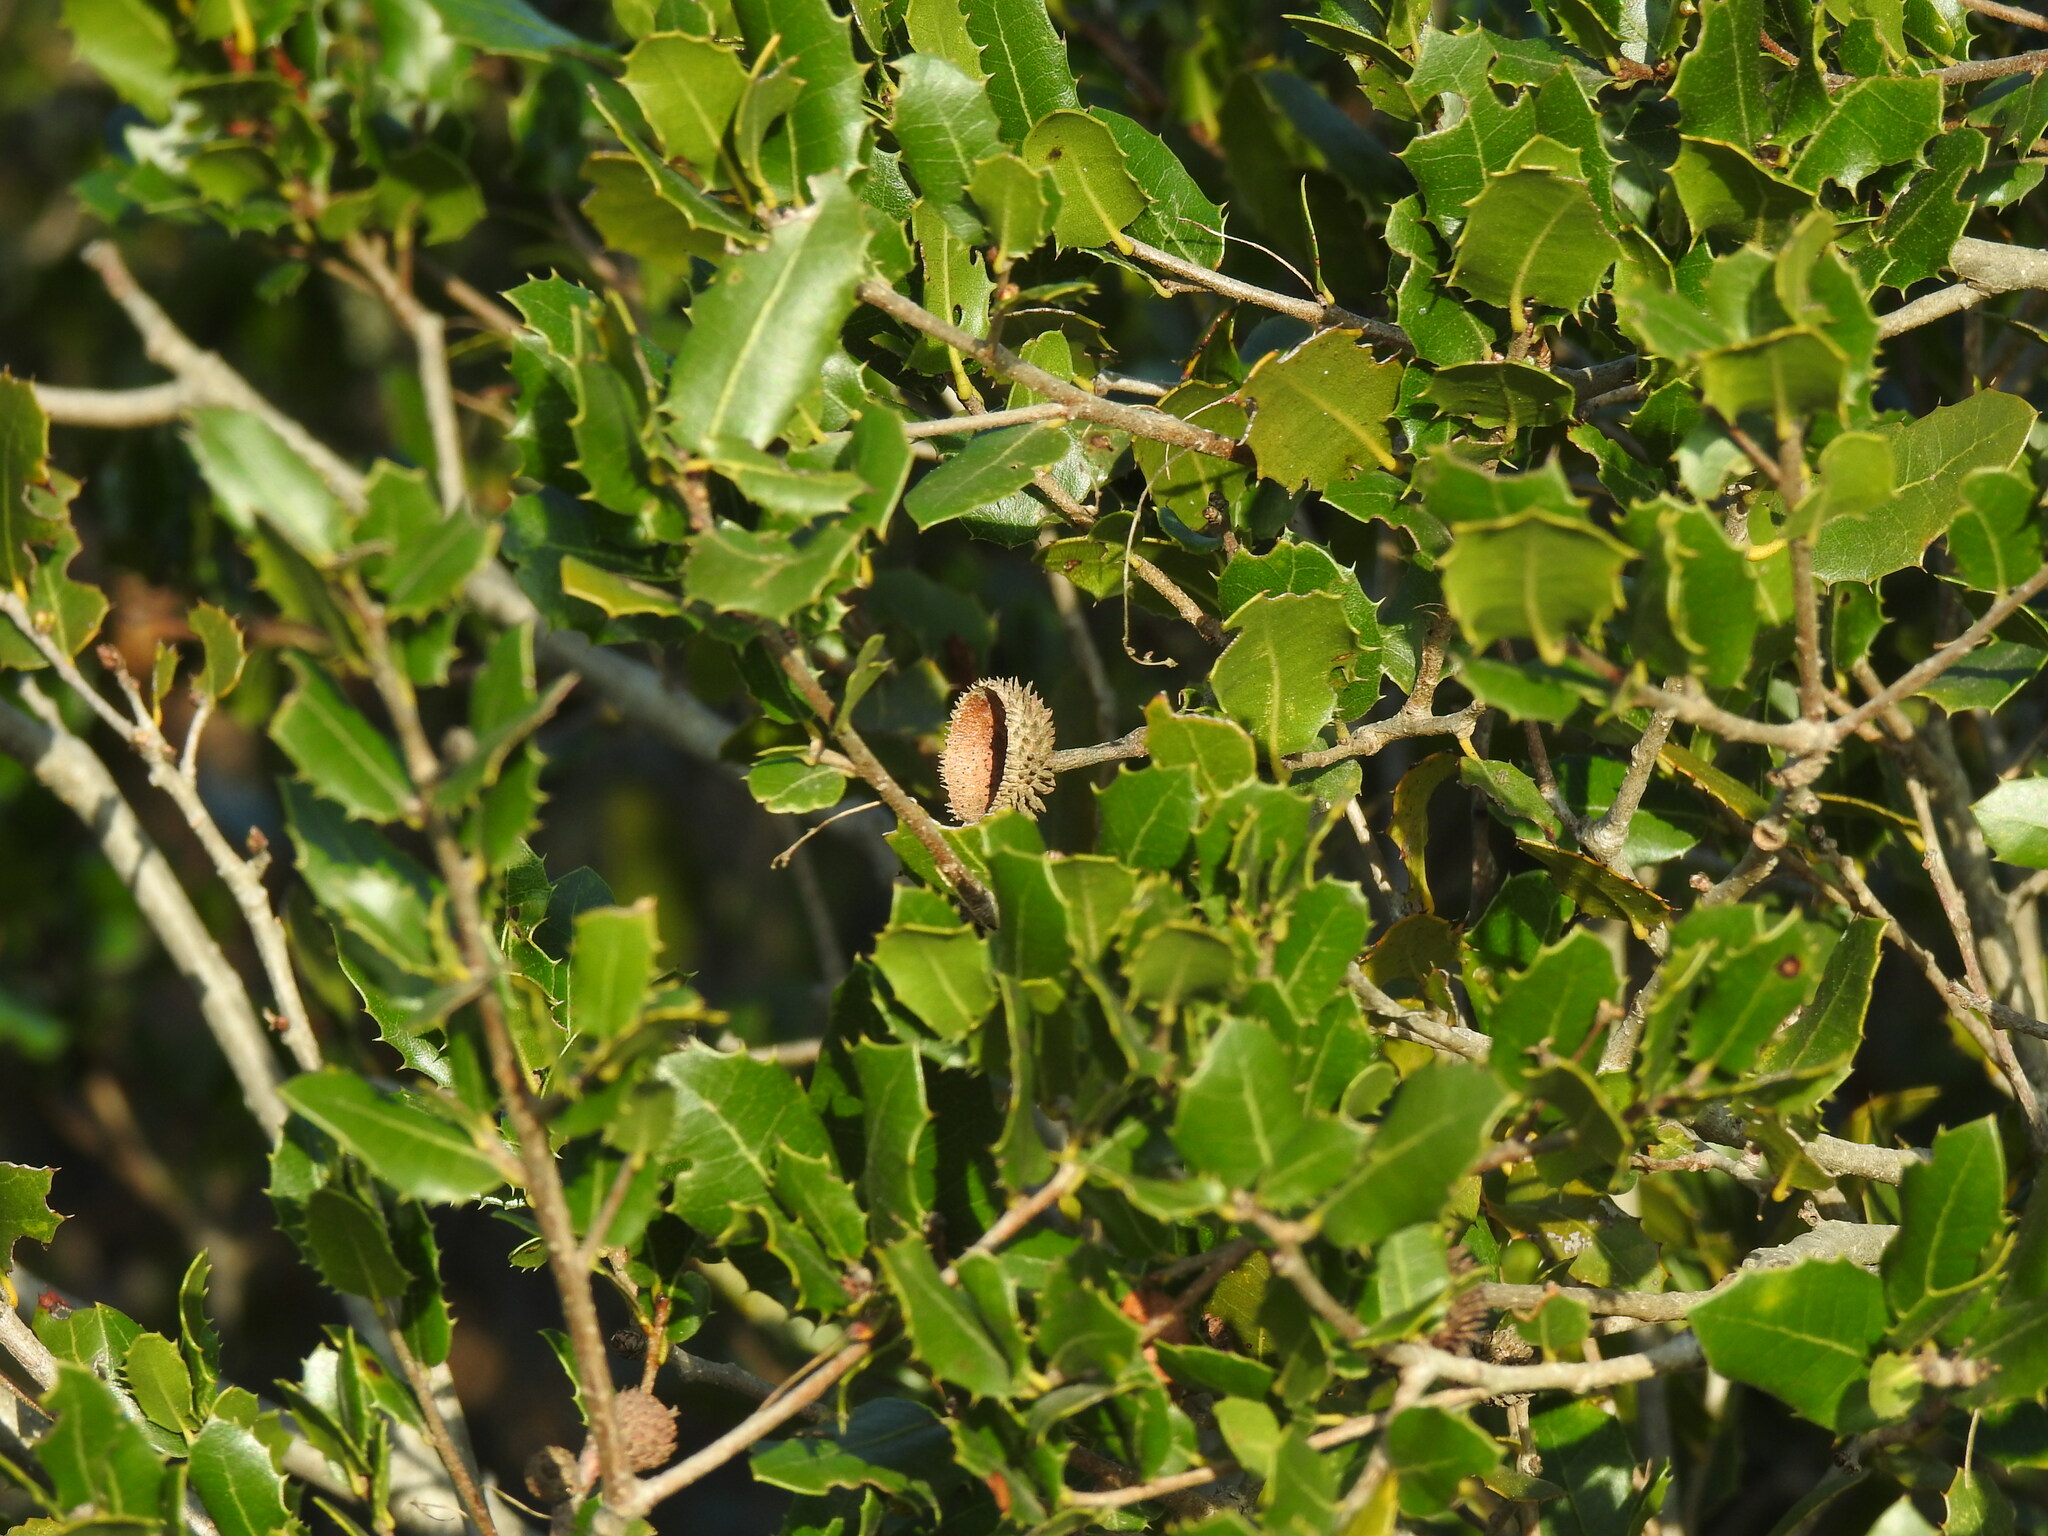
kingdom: Plantae
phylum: Tracheophyta
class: Magnoliopsida
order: Fagales
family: Fagaceae
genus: Quercus
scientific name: Quercus coccifera
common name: Kermes oak
